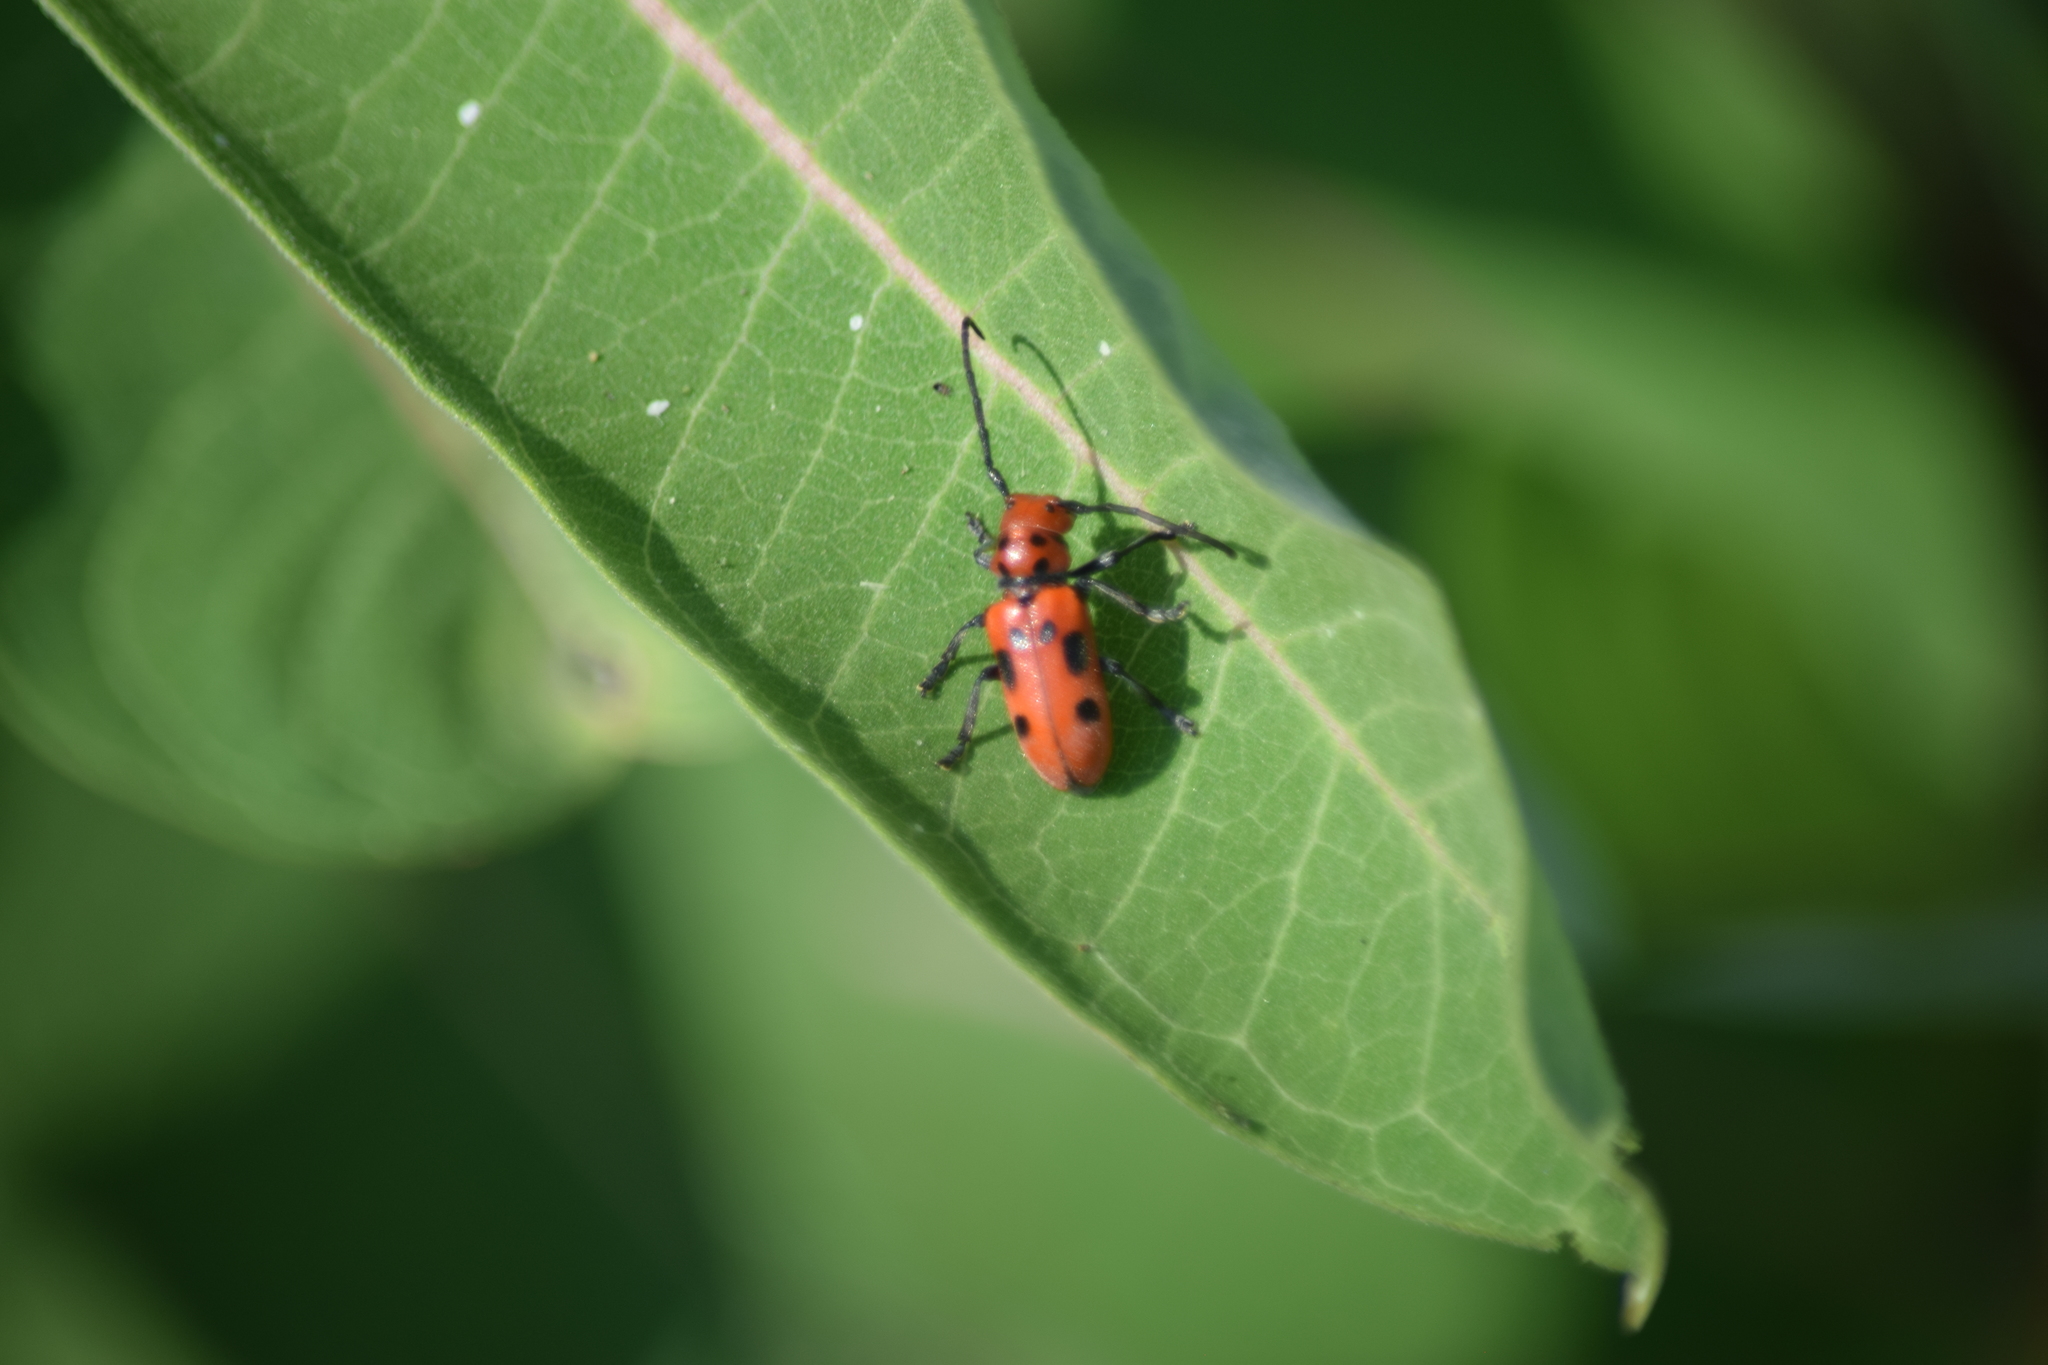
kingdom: Animalia
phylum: Arthropoda
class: Insecta
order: Coleoptera
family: Cerambycidae
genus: Tetraopes
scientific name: Tetraopes tetrophthalmus
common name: Red milkweed beetle
